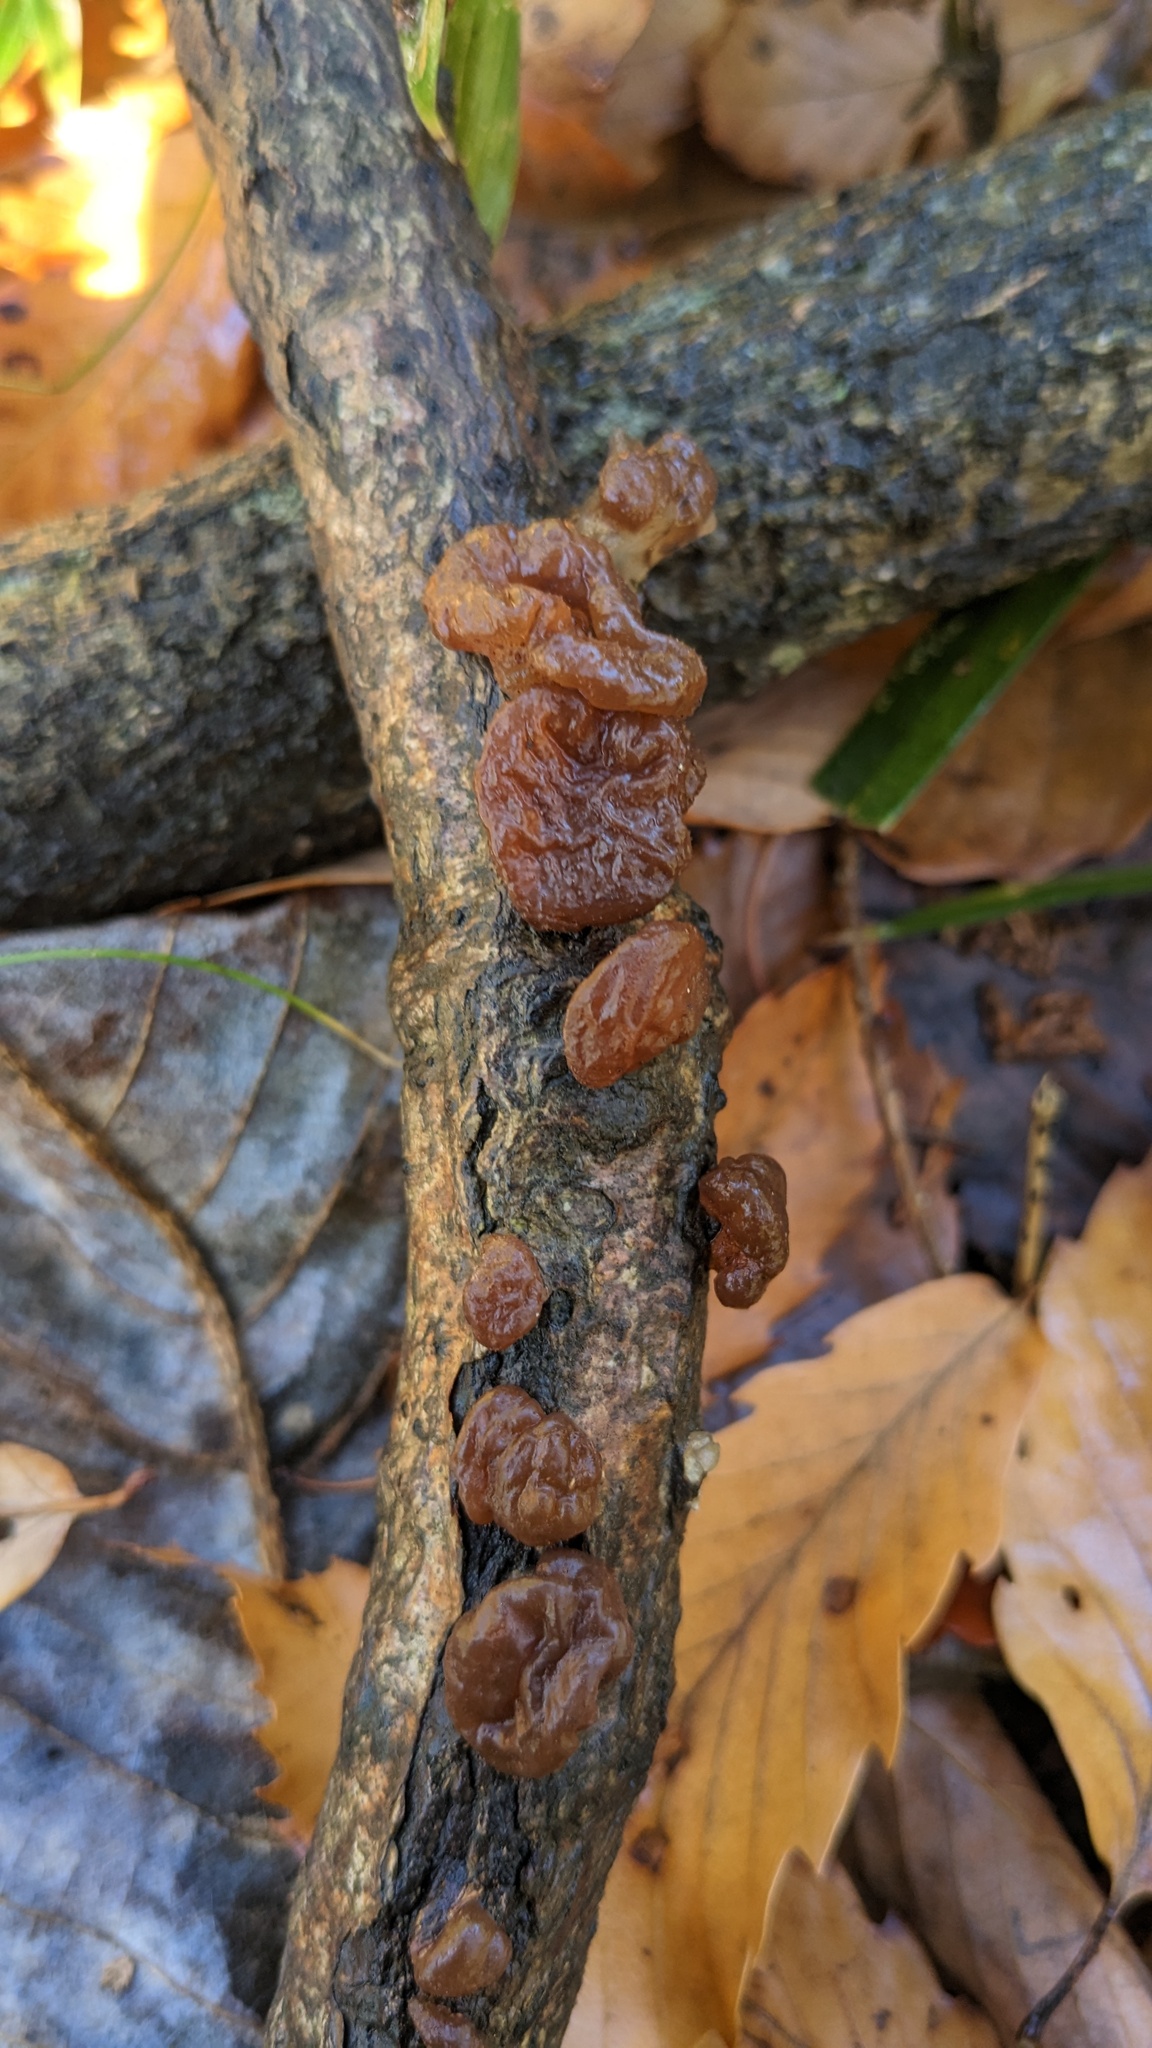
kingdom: Fungi
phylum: Basidiomycota
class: Agaricomycetes
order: Auriculariales
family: Auriculariaceae
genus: Exidia
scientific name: Exidia uvapassa
